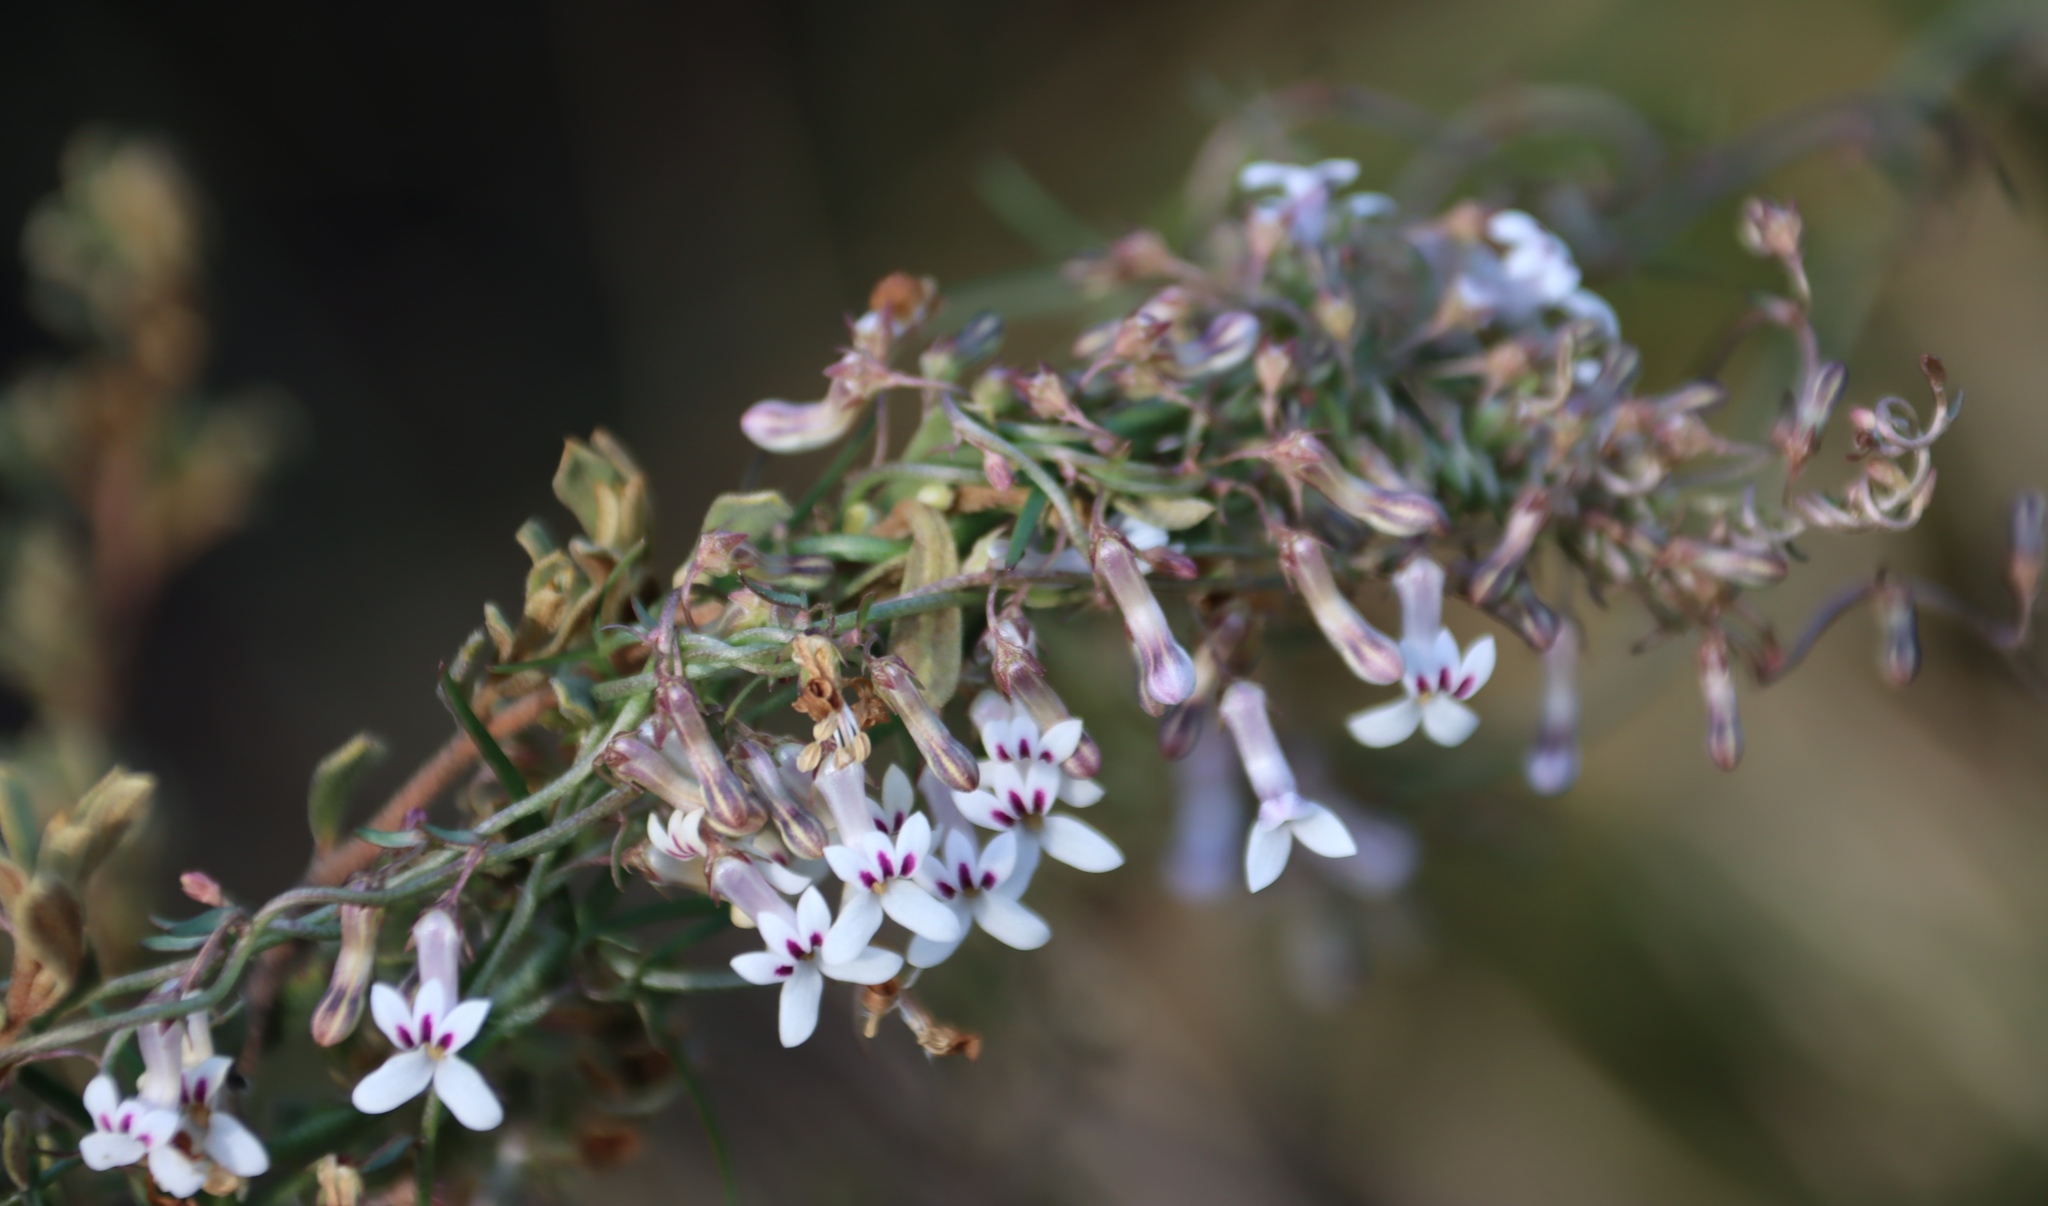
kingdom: Plantae
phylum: Tracheophyta
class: Magnoliopsida
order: Asterales
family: Campanulaceae
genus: Cyphia
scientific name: Cyphia digitata
